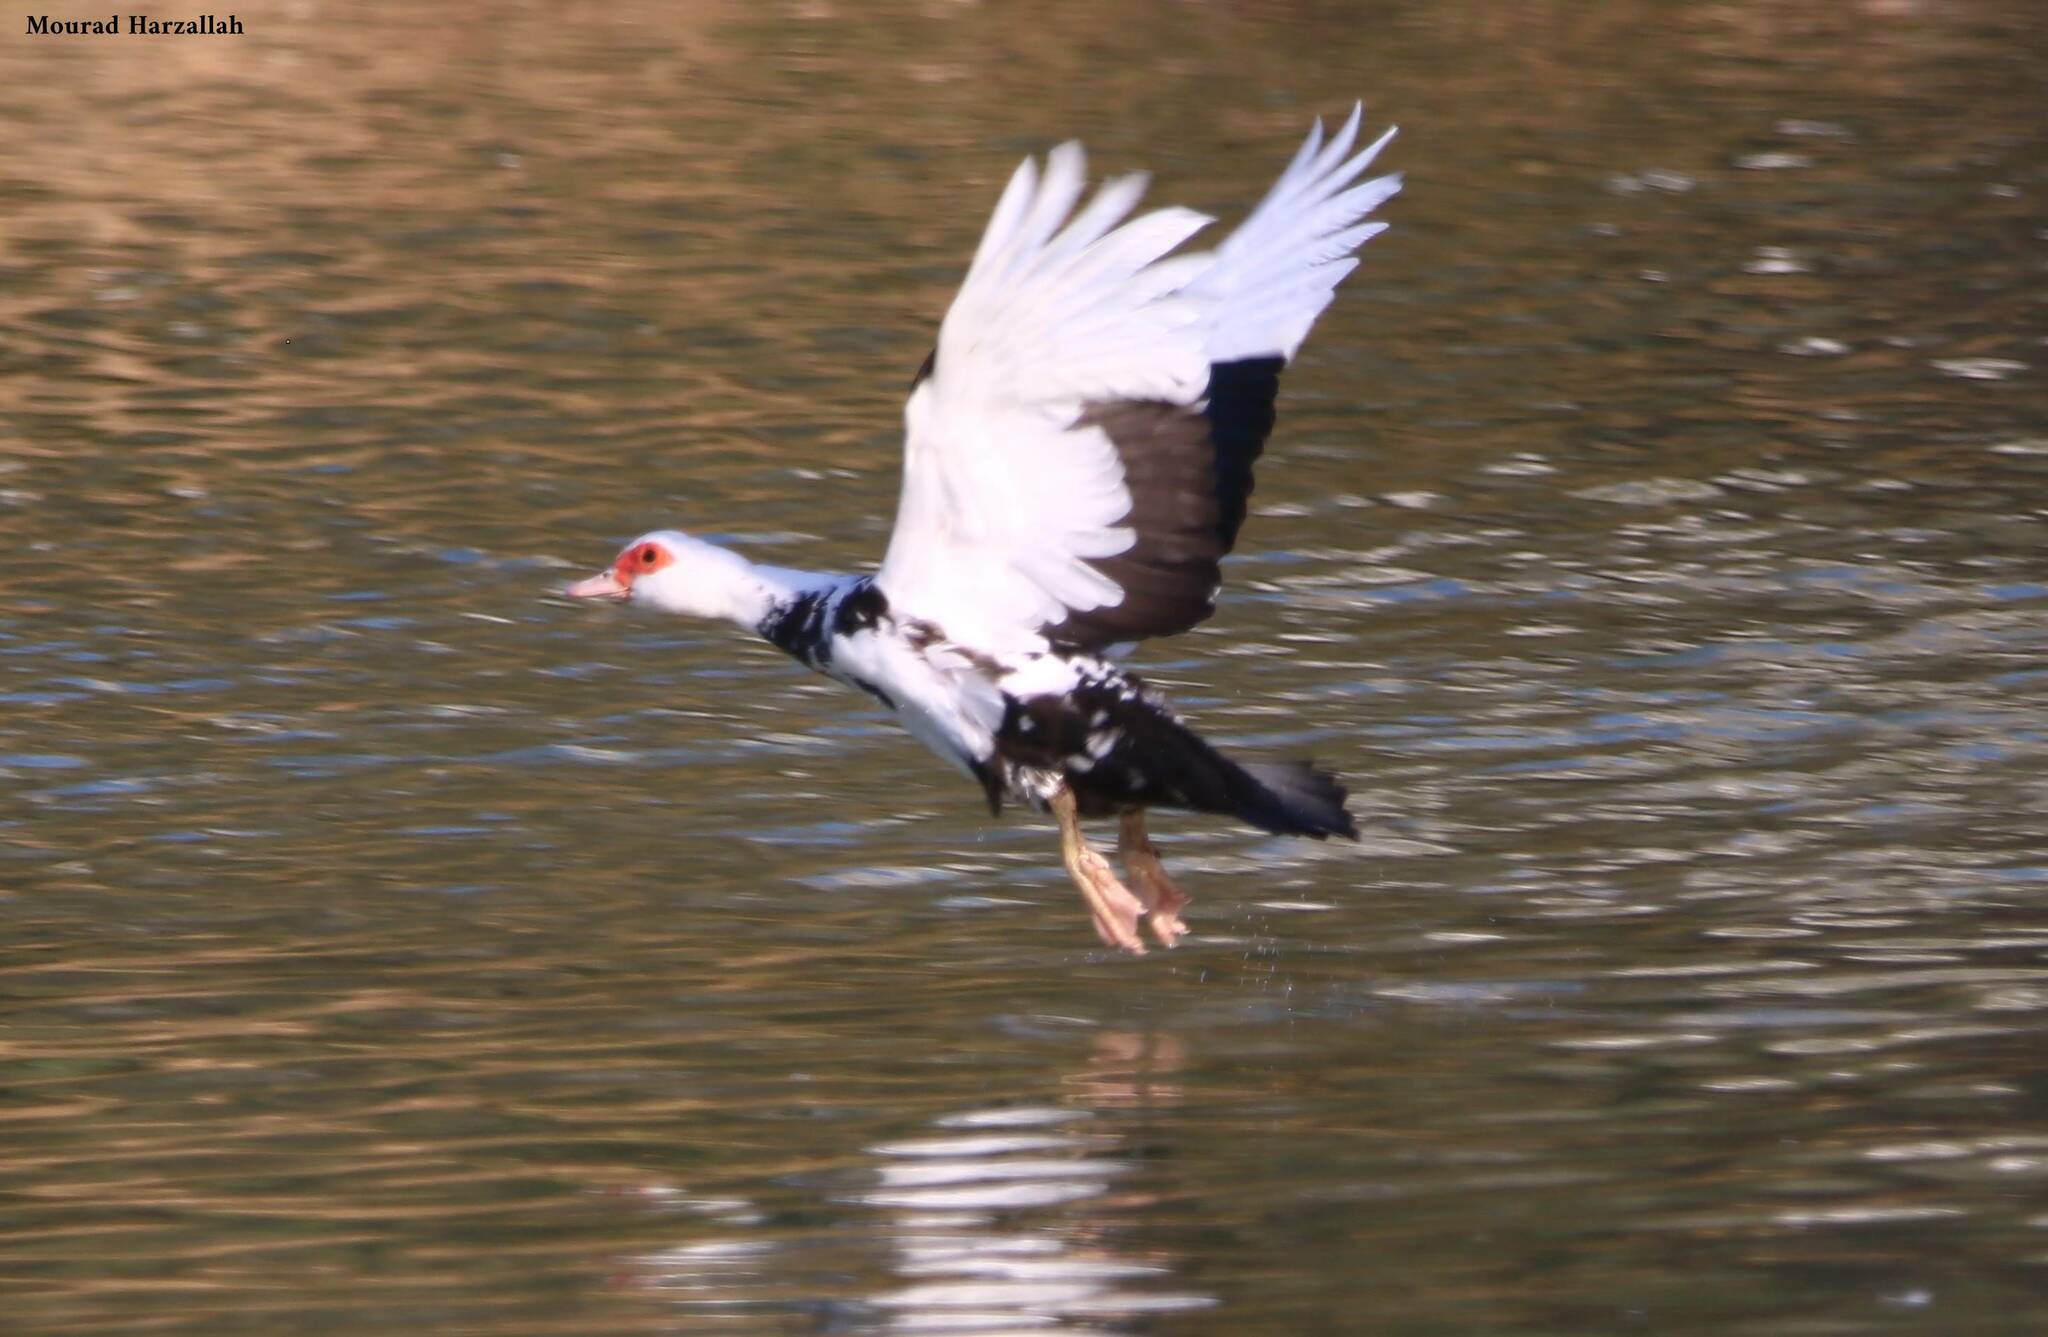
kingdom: Animalia
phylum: Chordata
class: Aves
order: Anseriformes
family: Anatidae
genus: Cairina
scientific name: Cairina moschata
